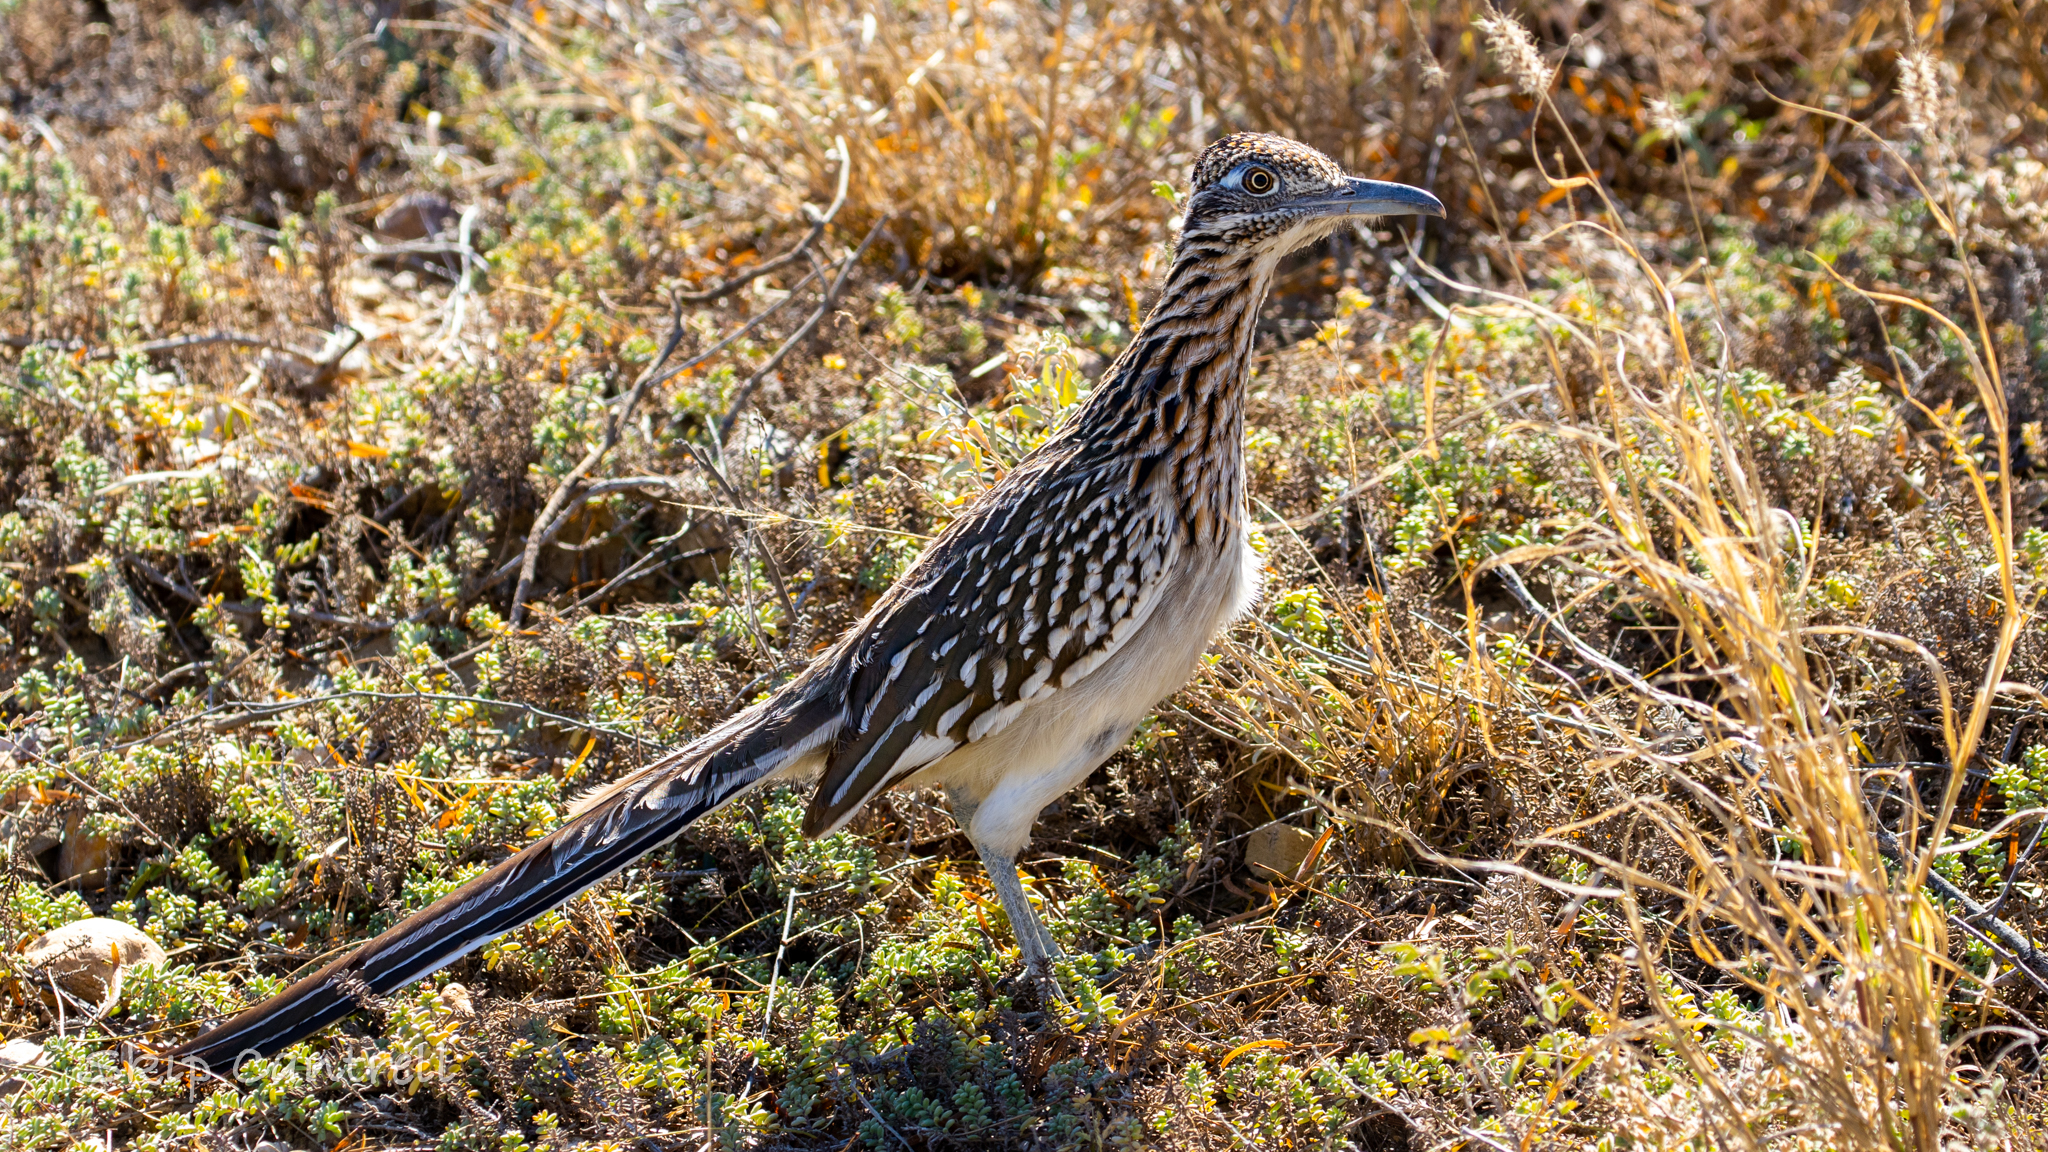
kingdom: Animalia
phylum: Chordata
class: Aves
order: Cuculiformes
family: Cuculidae
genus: Geococcyx
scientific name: Geococcyx californianus
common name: Greater roadrunner
